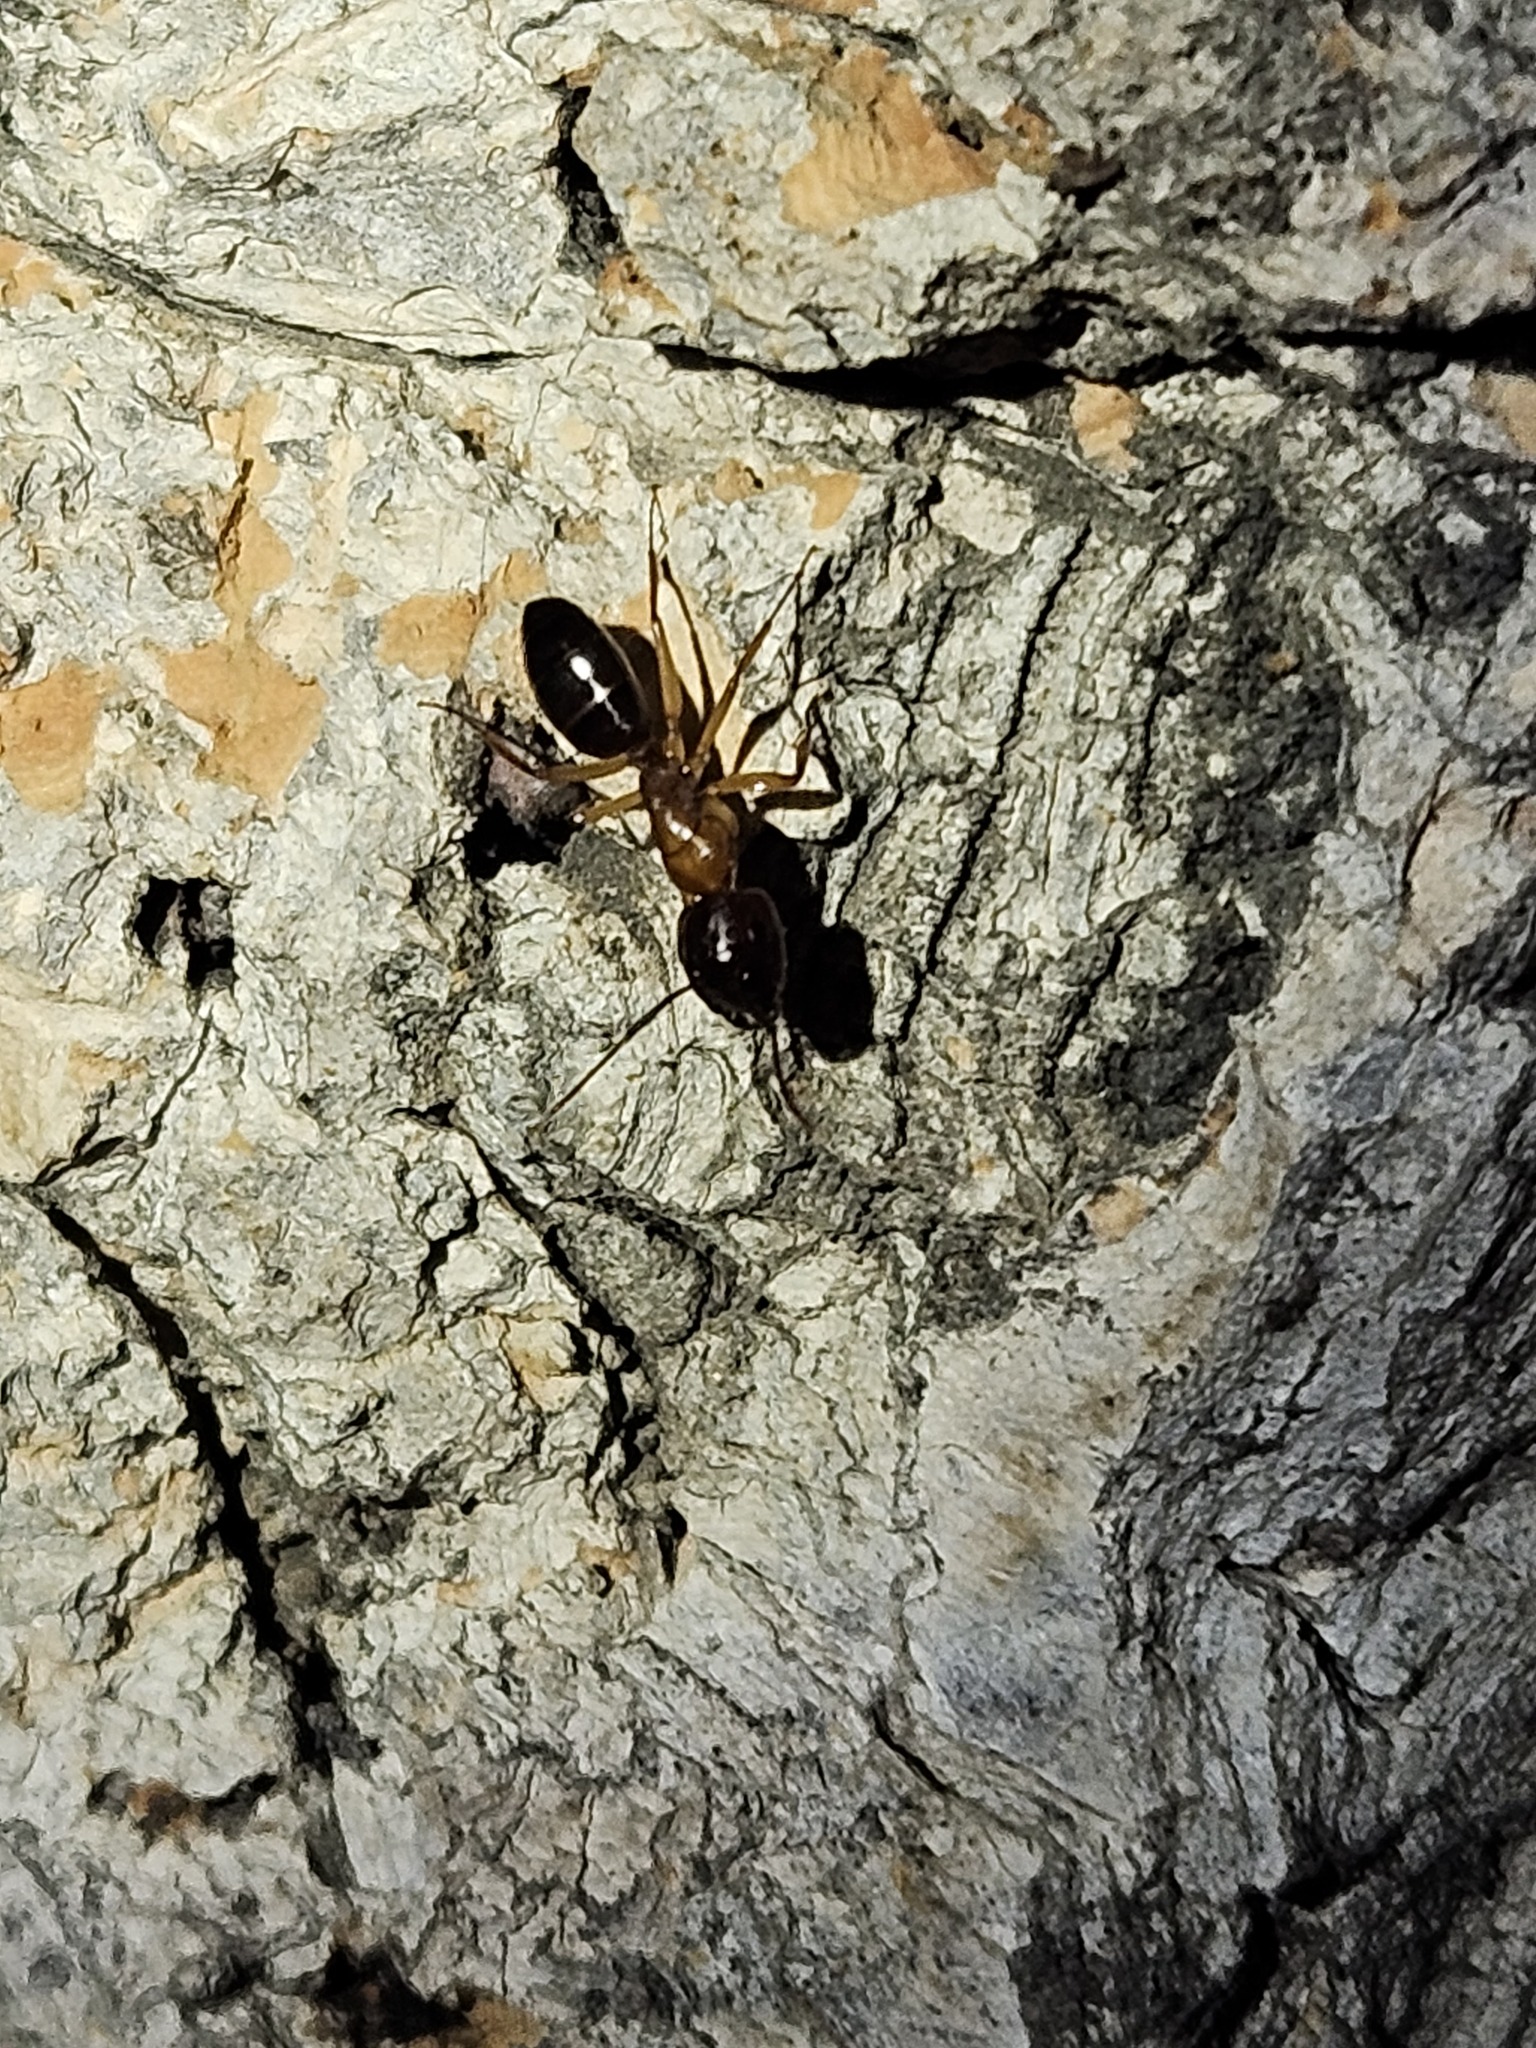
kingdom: Animalia
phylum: Arthropoda
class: Insecta
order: Hymenoptera
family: Formicidae
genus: Camponotus
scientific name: Camponotus clarithorax
